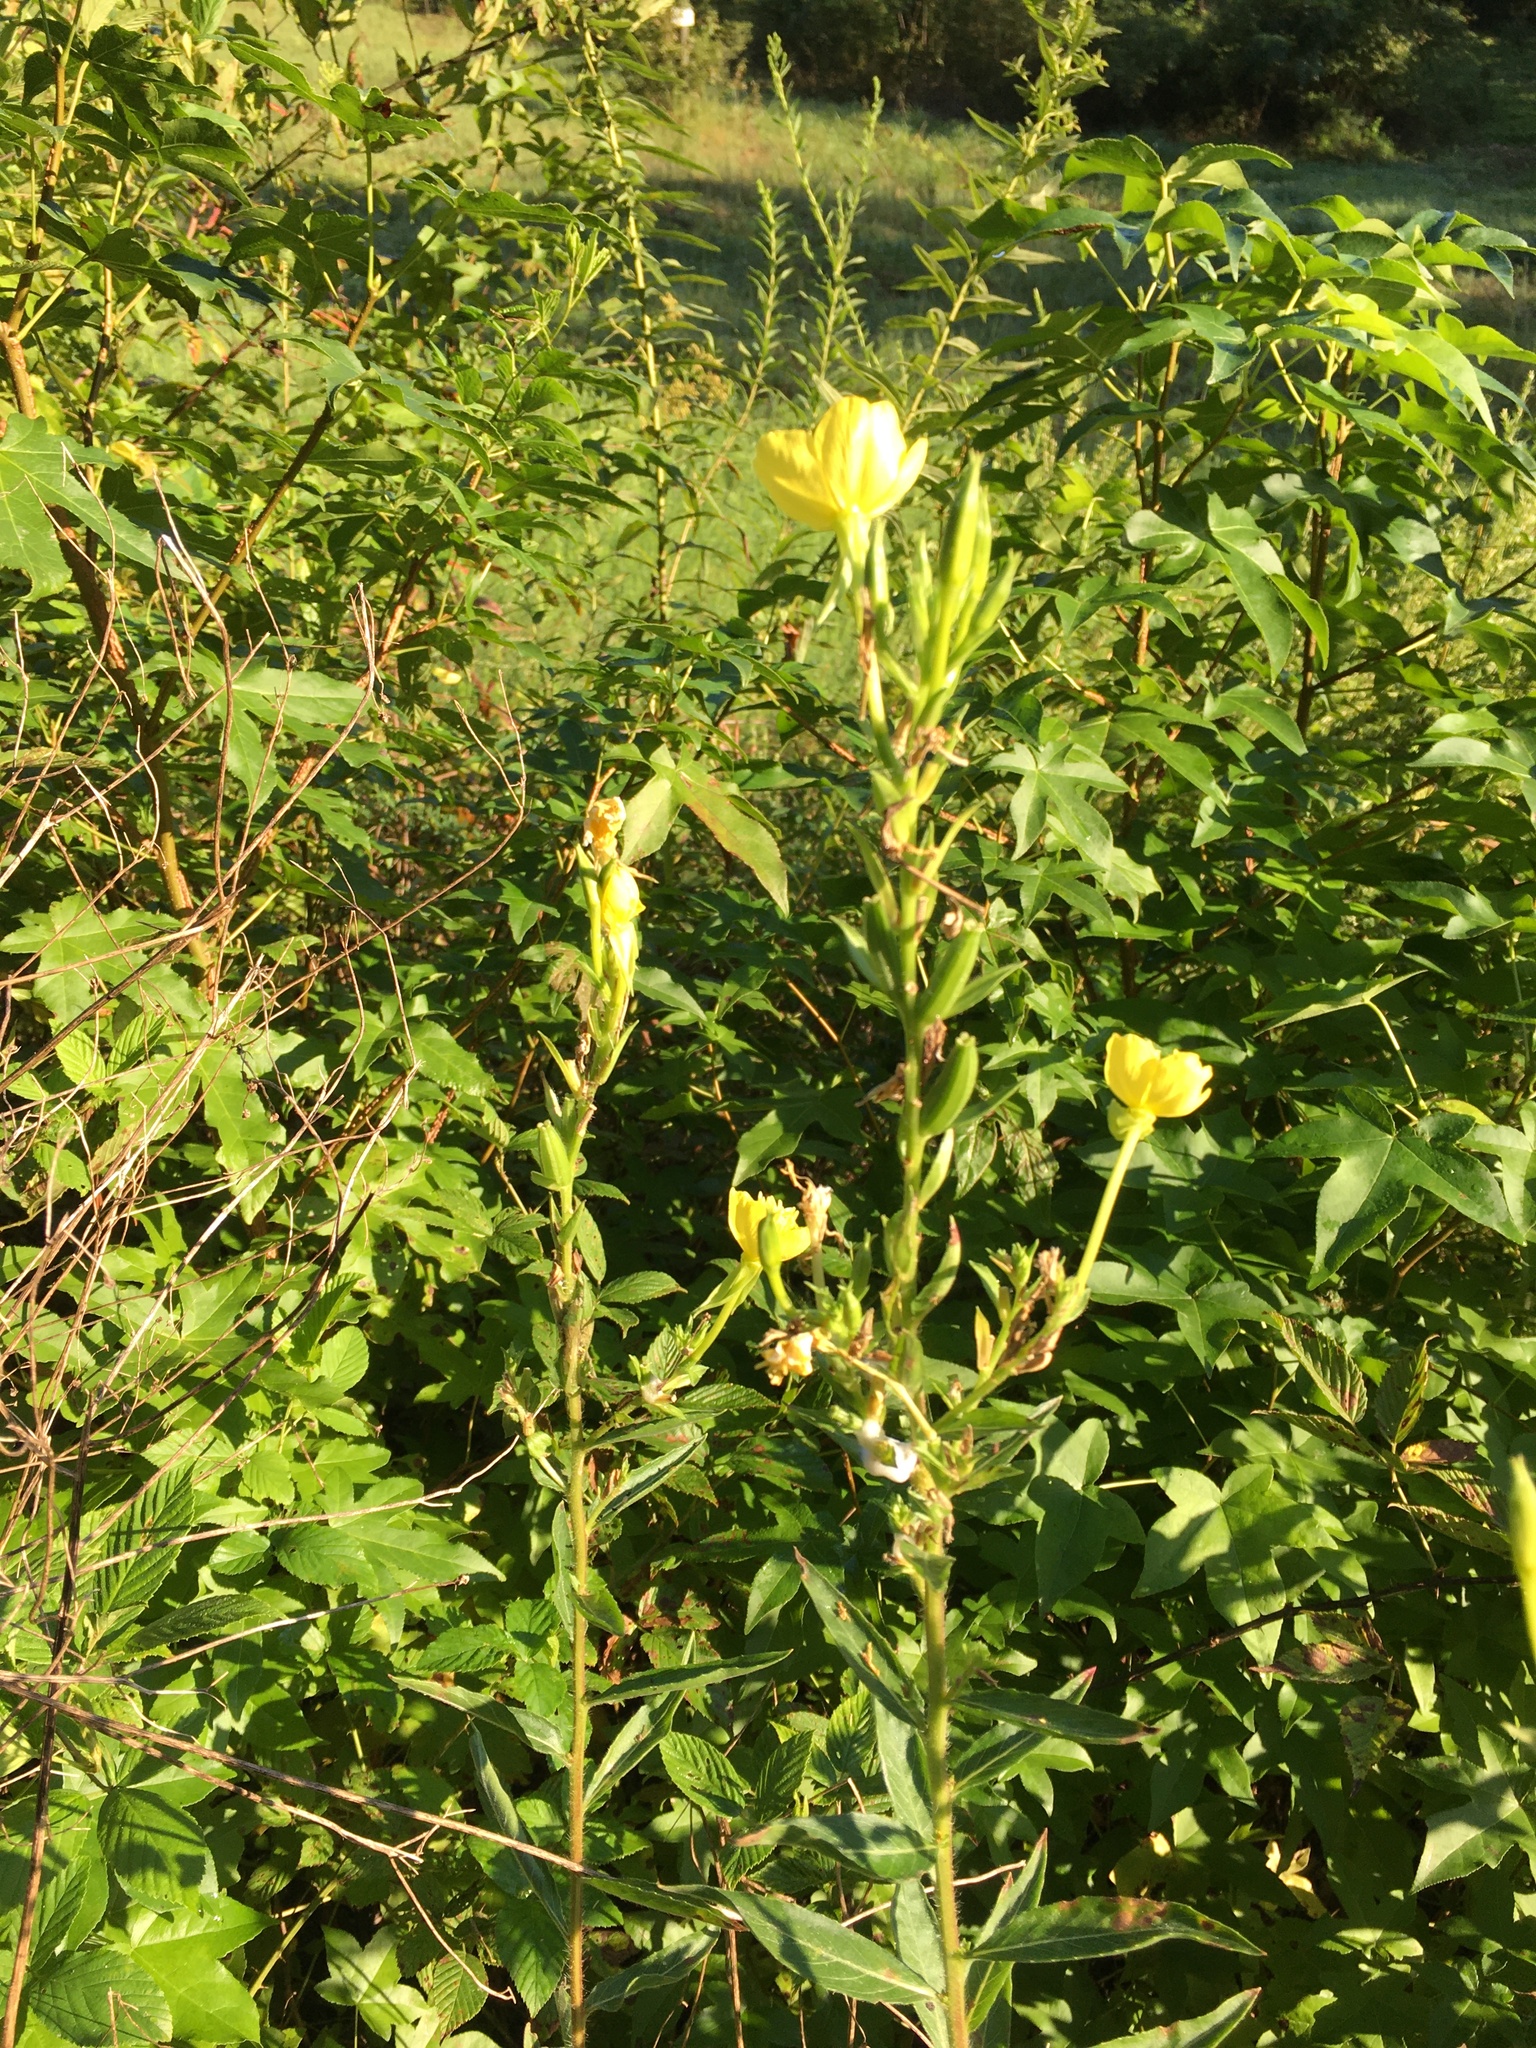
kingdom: Plantae
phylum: Tracheophyta
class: Magnoliopsida
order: Myrtales
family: Onagraceae
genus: Oenothera
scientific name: Oenothera biennis
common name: Common evening-primrose
